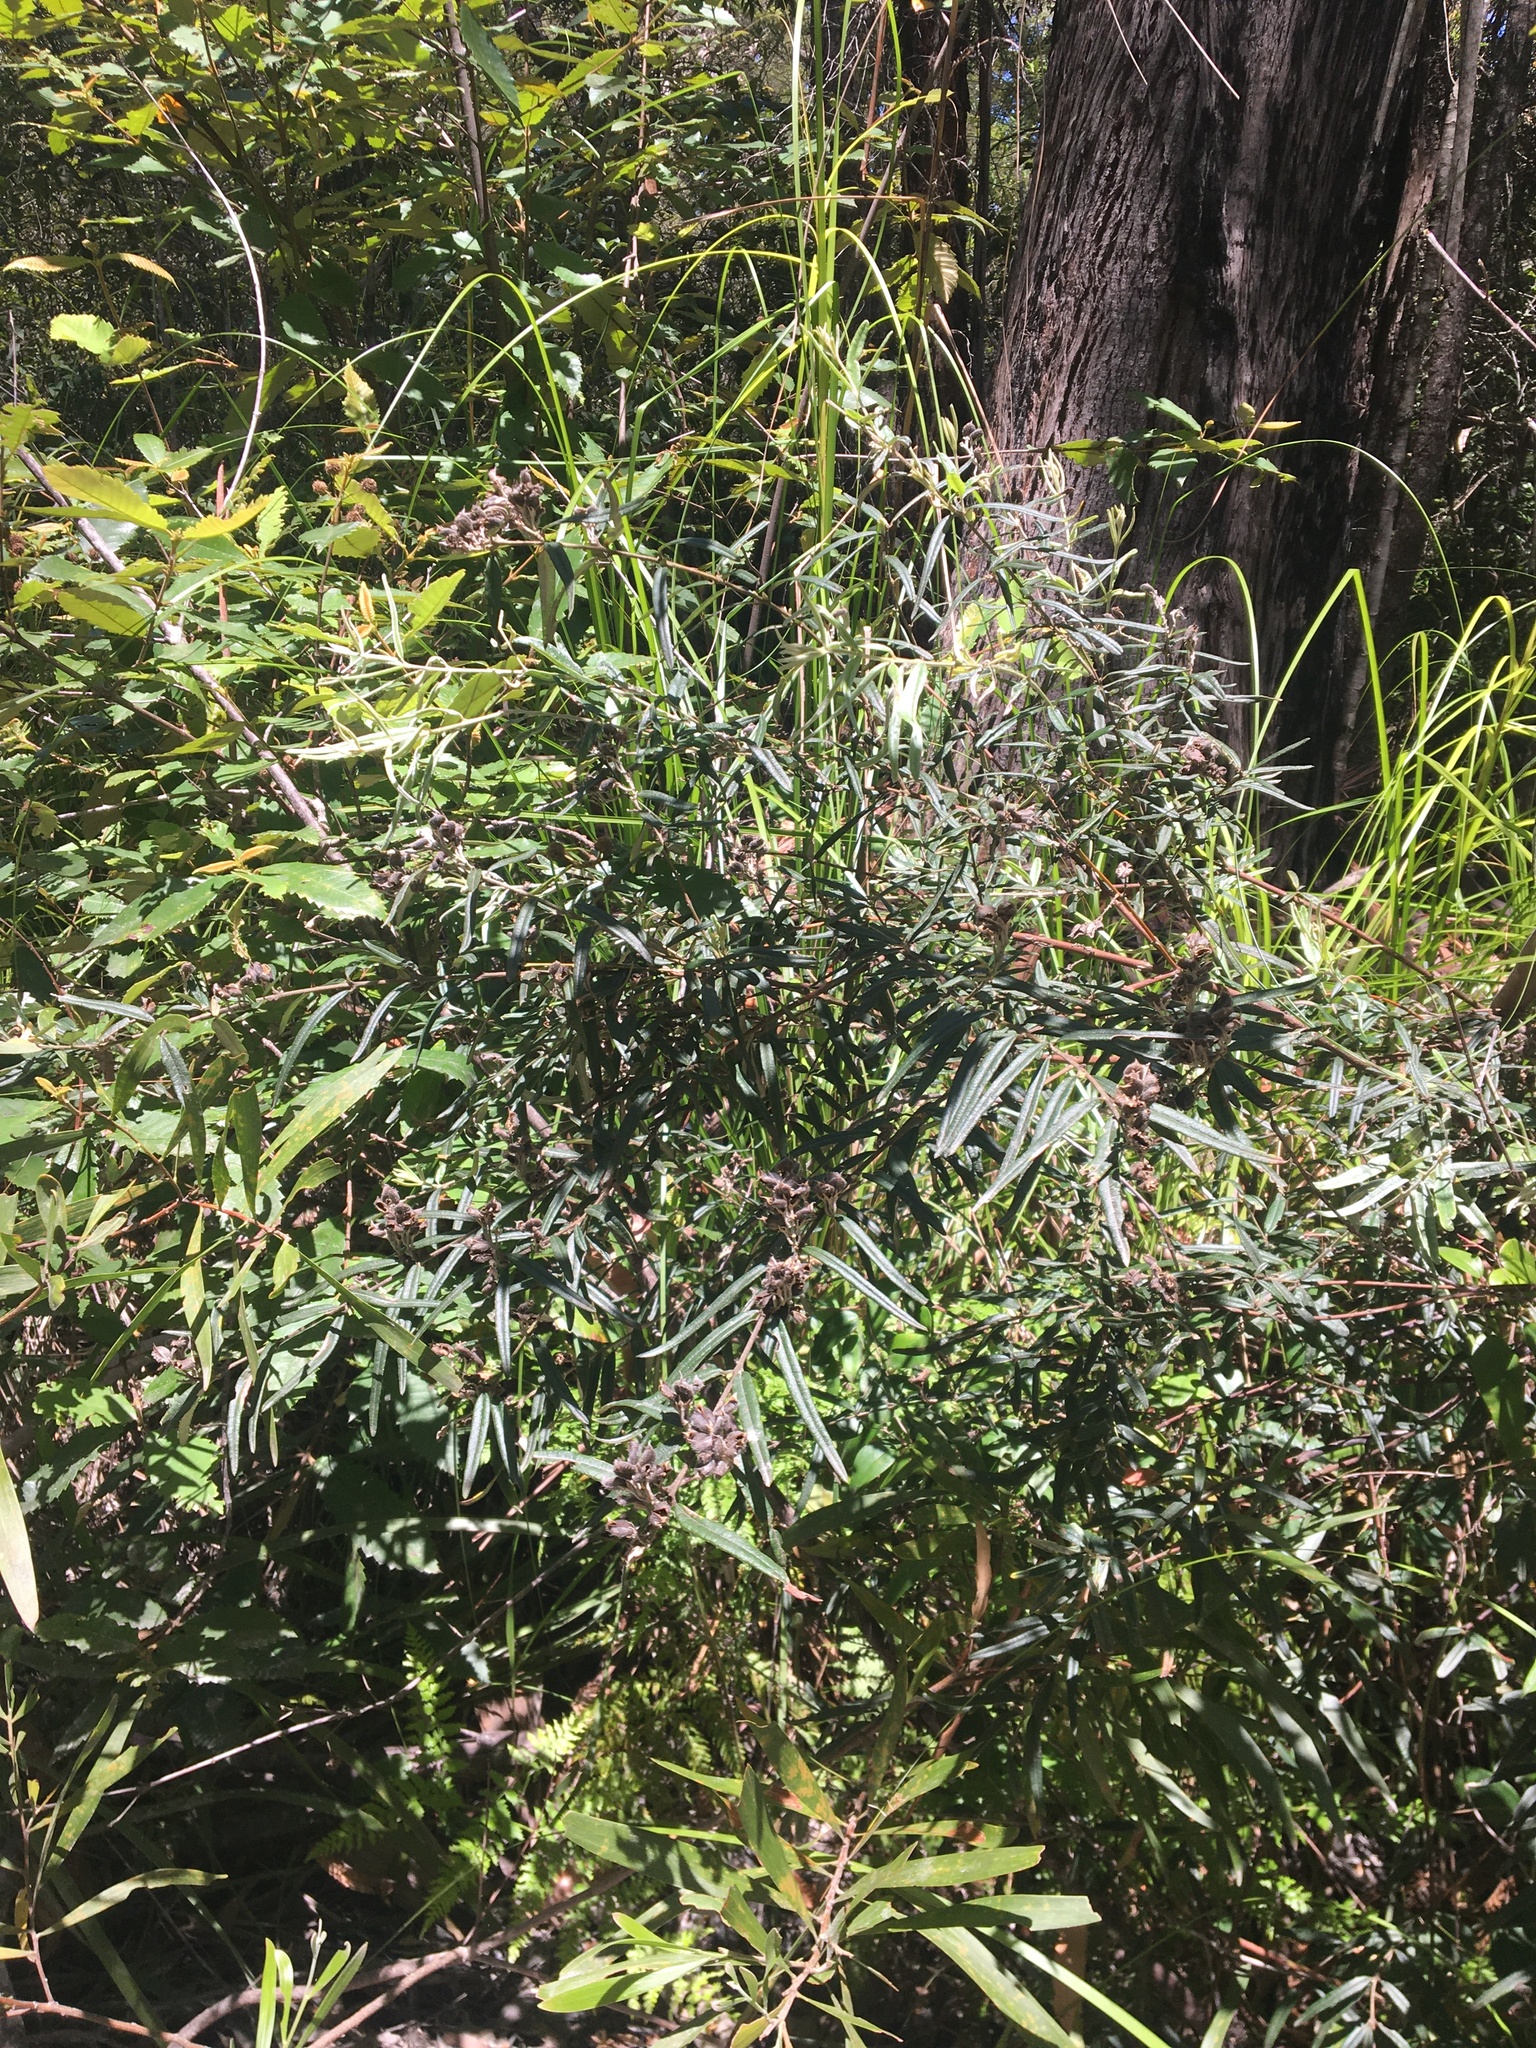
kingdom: Plantae
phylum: Tracheophyta
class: Magnoliopsida
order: Fabales
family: Fabaceae
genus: Oxylobium
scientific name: Oxylobium robustum
